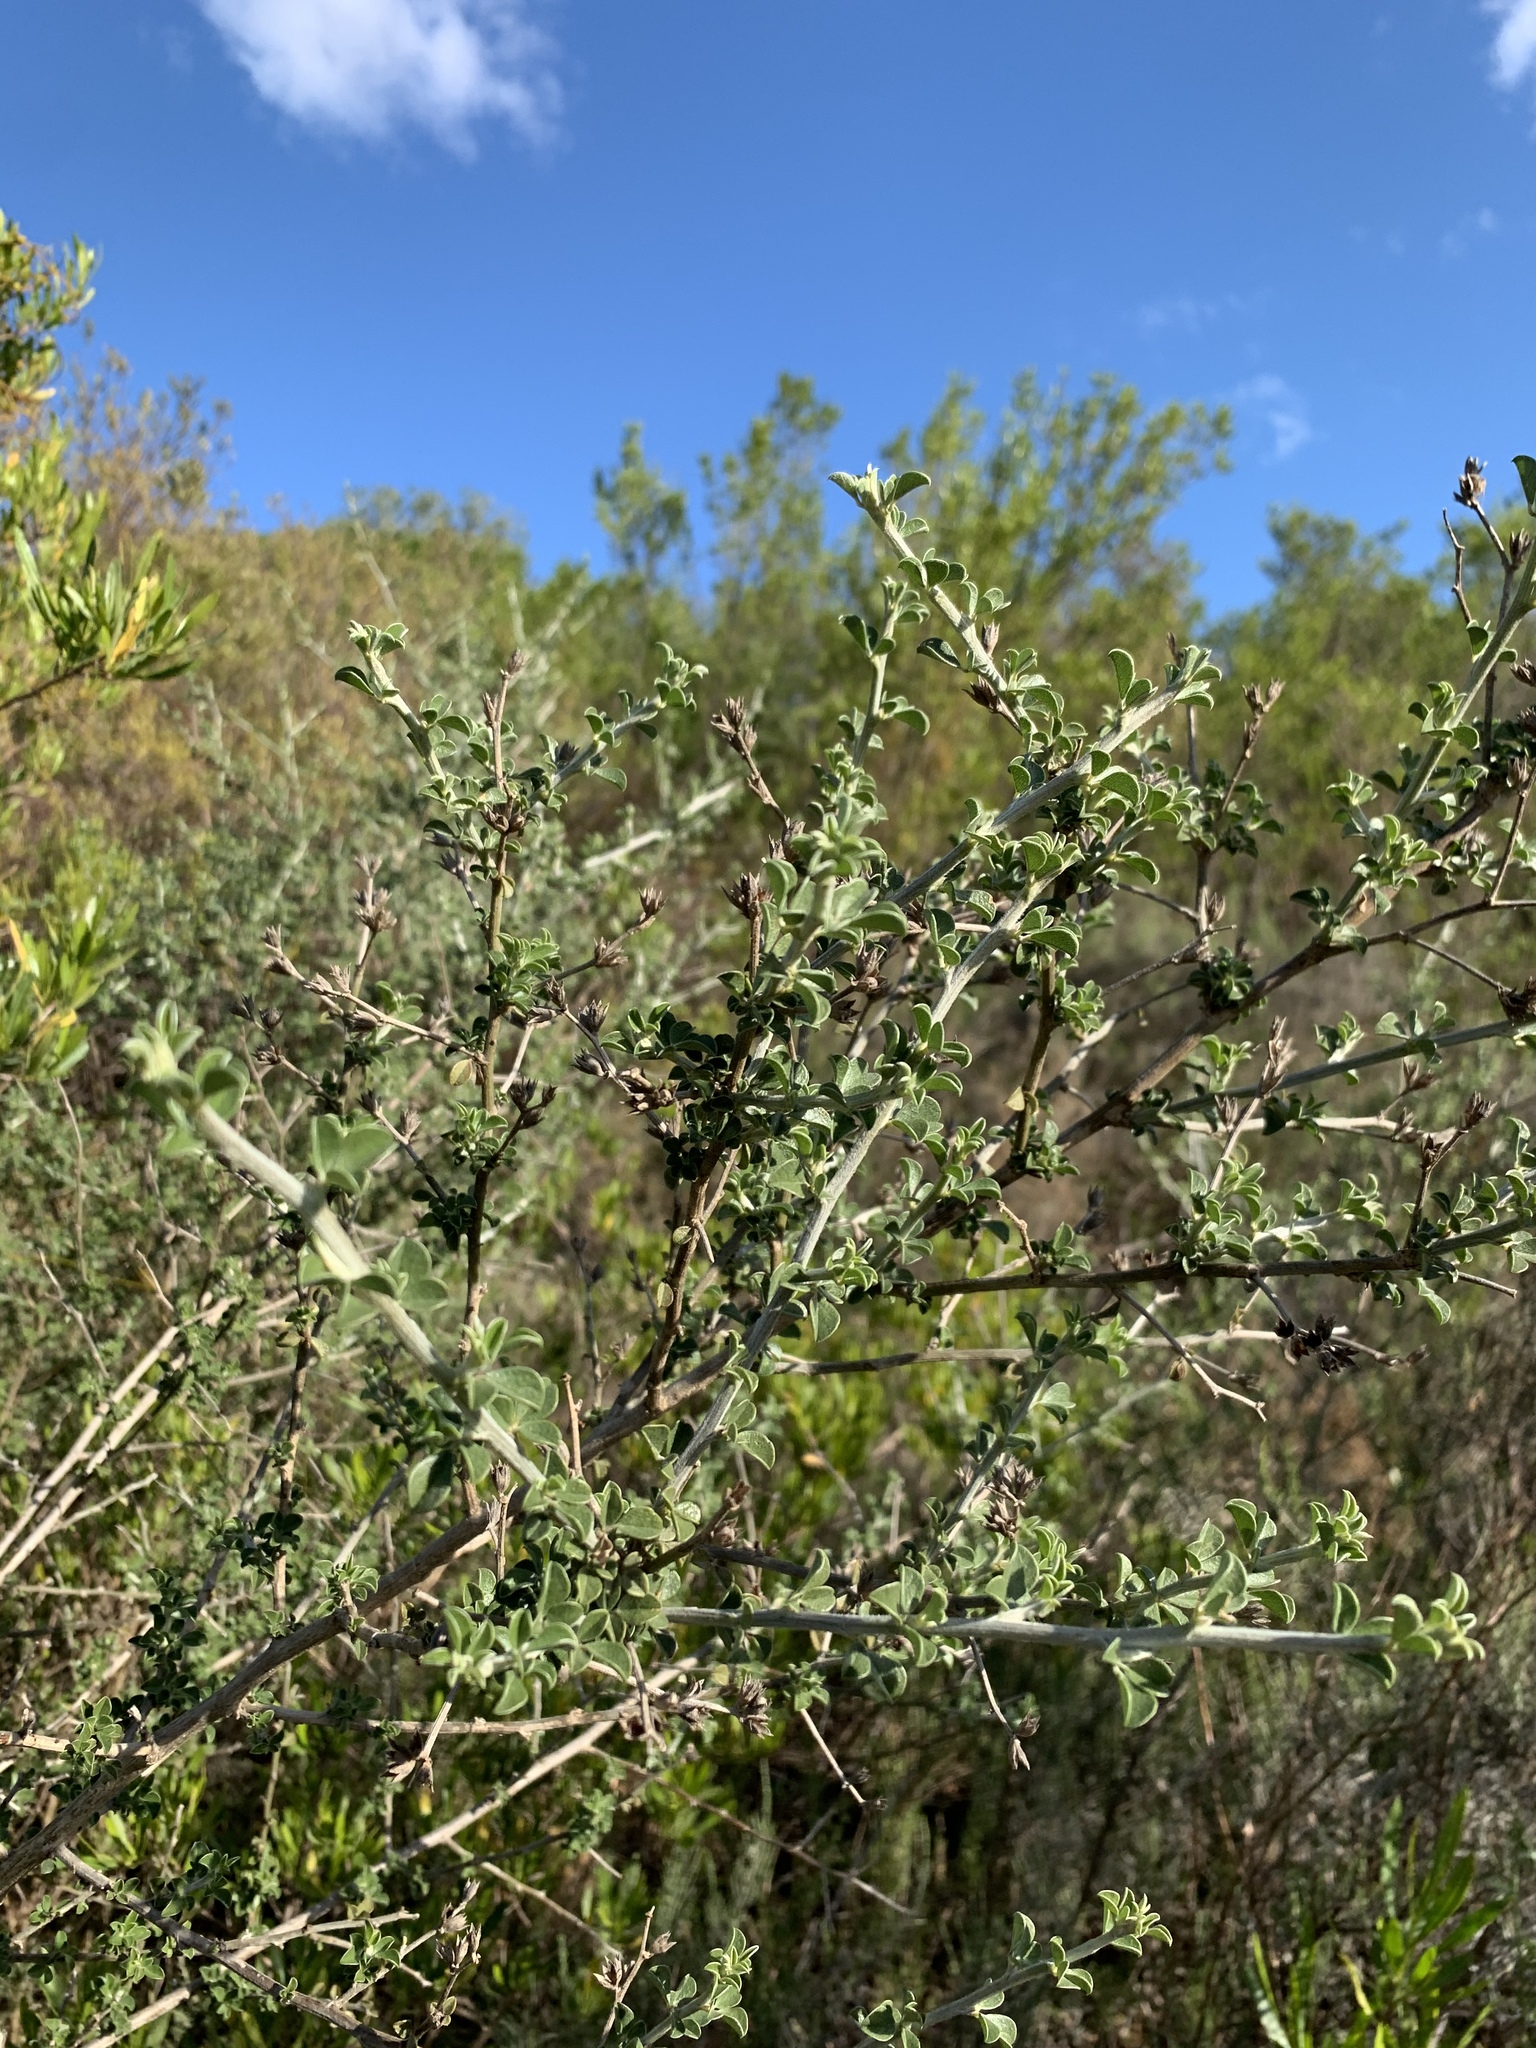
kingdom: Plantae
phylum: Tracheophyta
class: Magnoliopsida
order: Fabales
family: Fabaceae
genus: Psoralea
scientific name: Psoralea hirta
